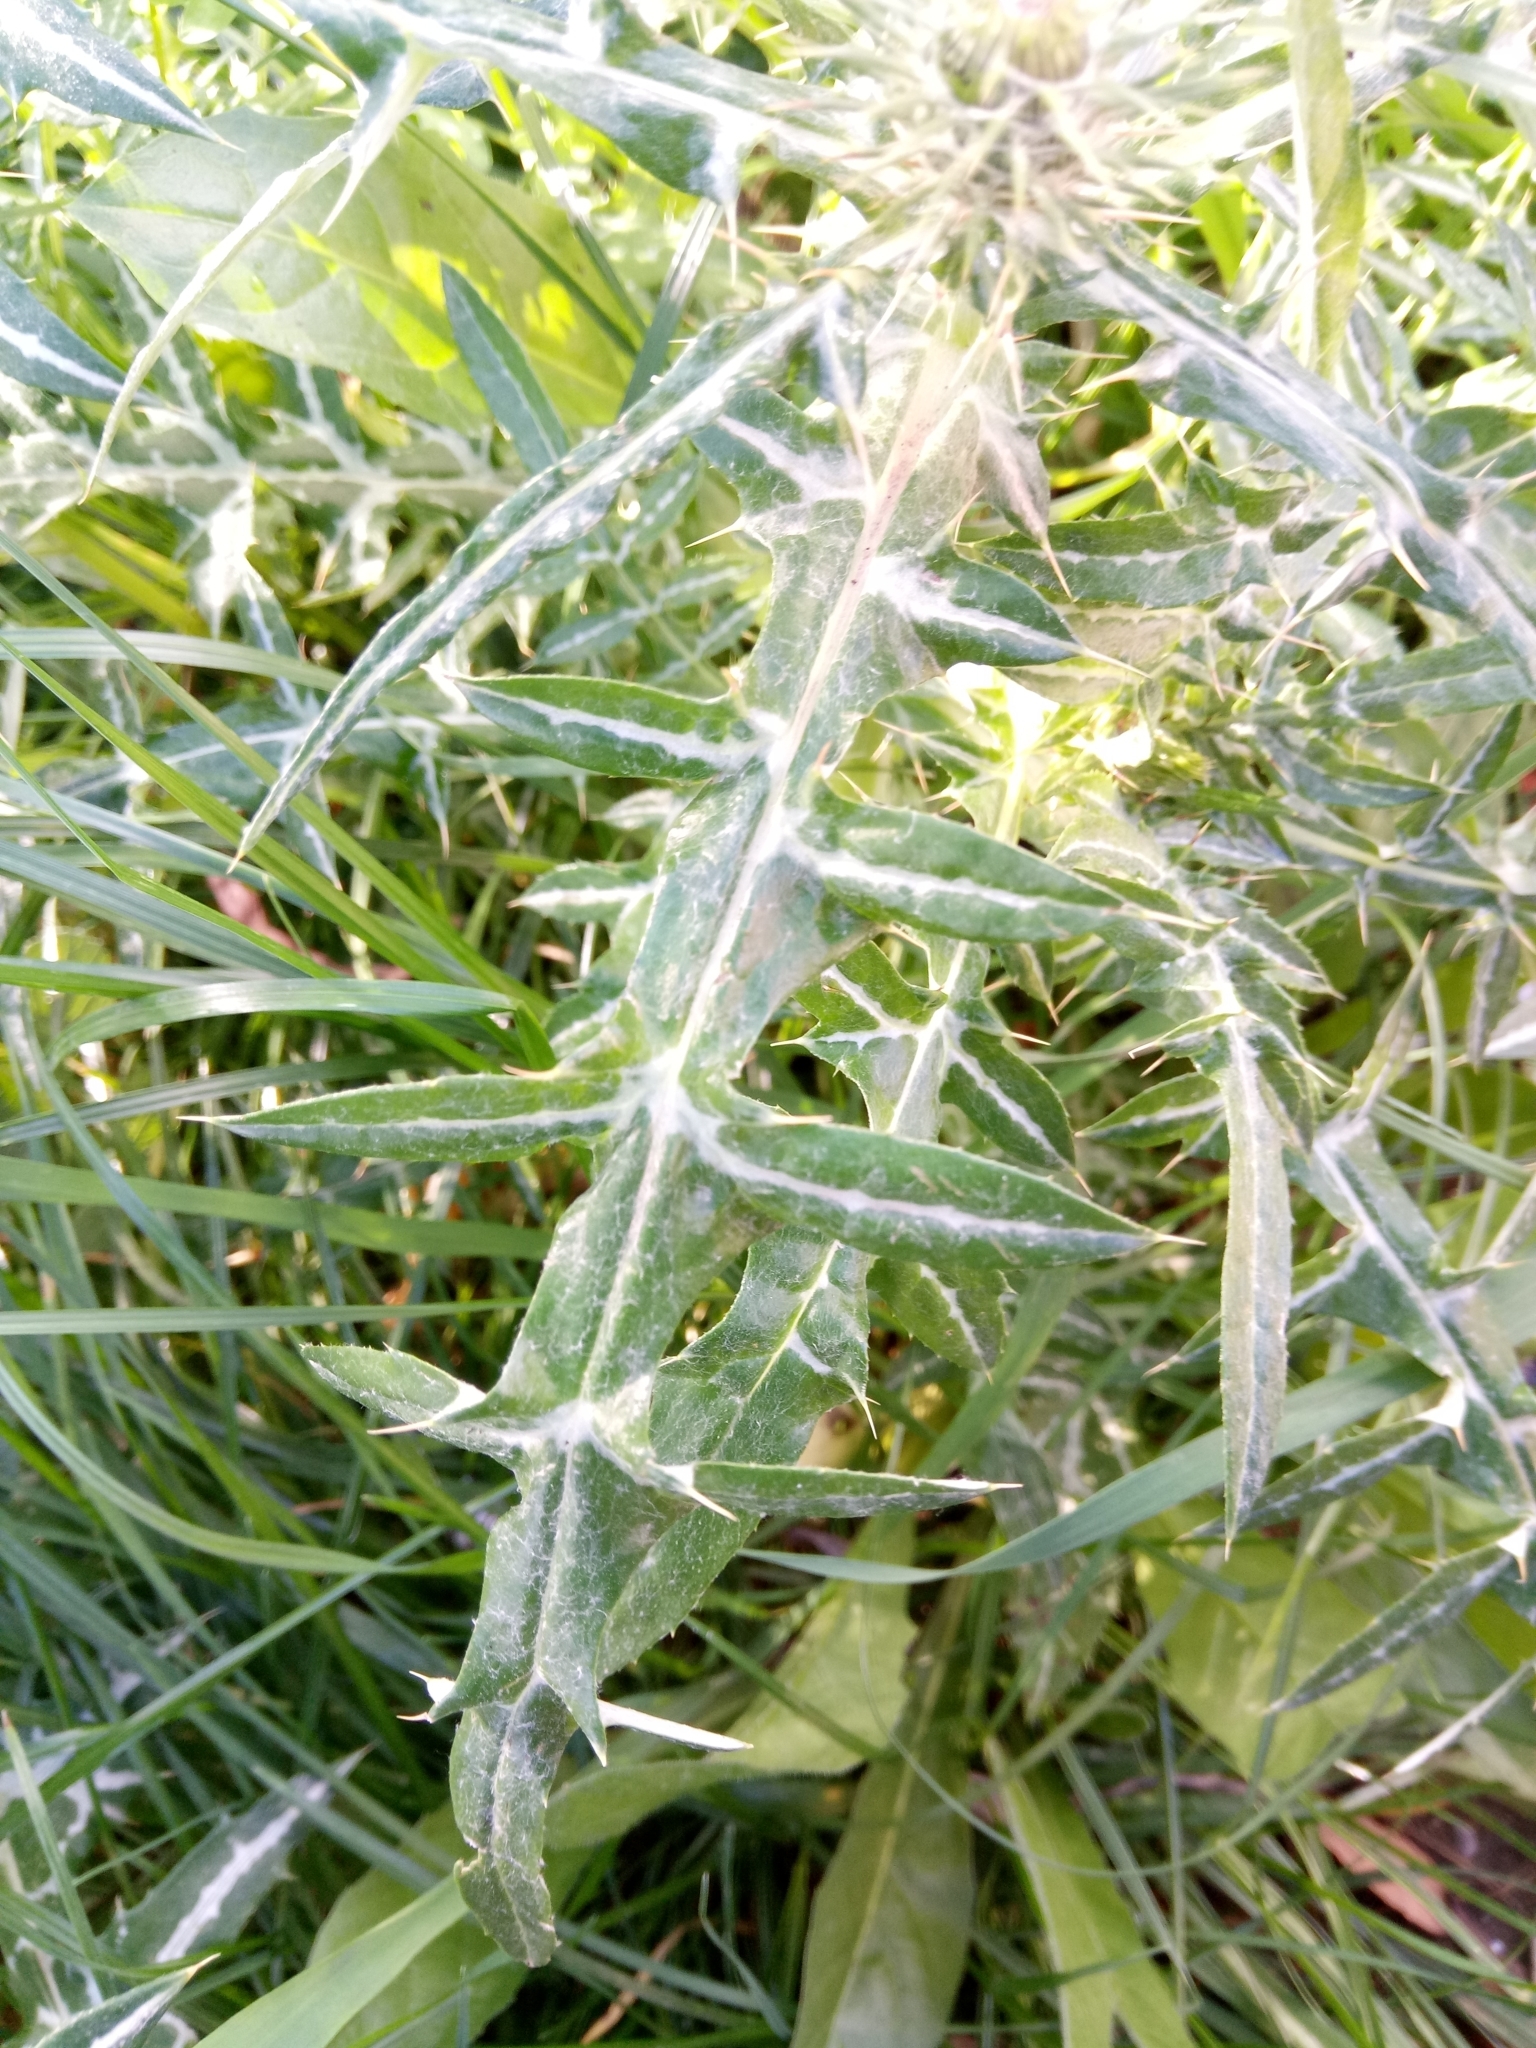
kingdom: Plantae
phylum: Tracheophyta
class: Magnoliopsida
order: Asterales
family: Asteraceae
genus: Galactites
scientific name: Galactites tomentosa
